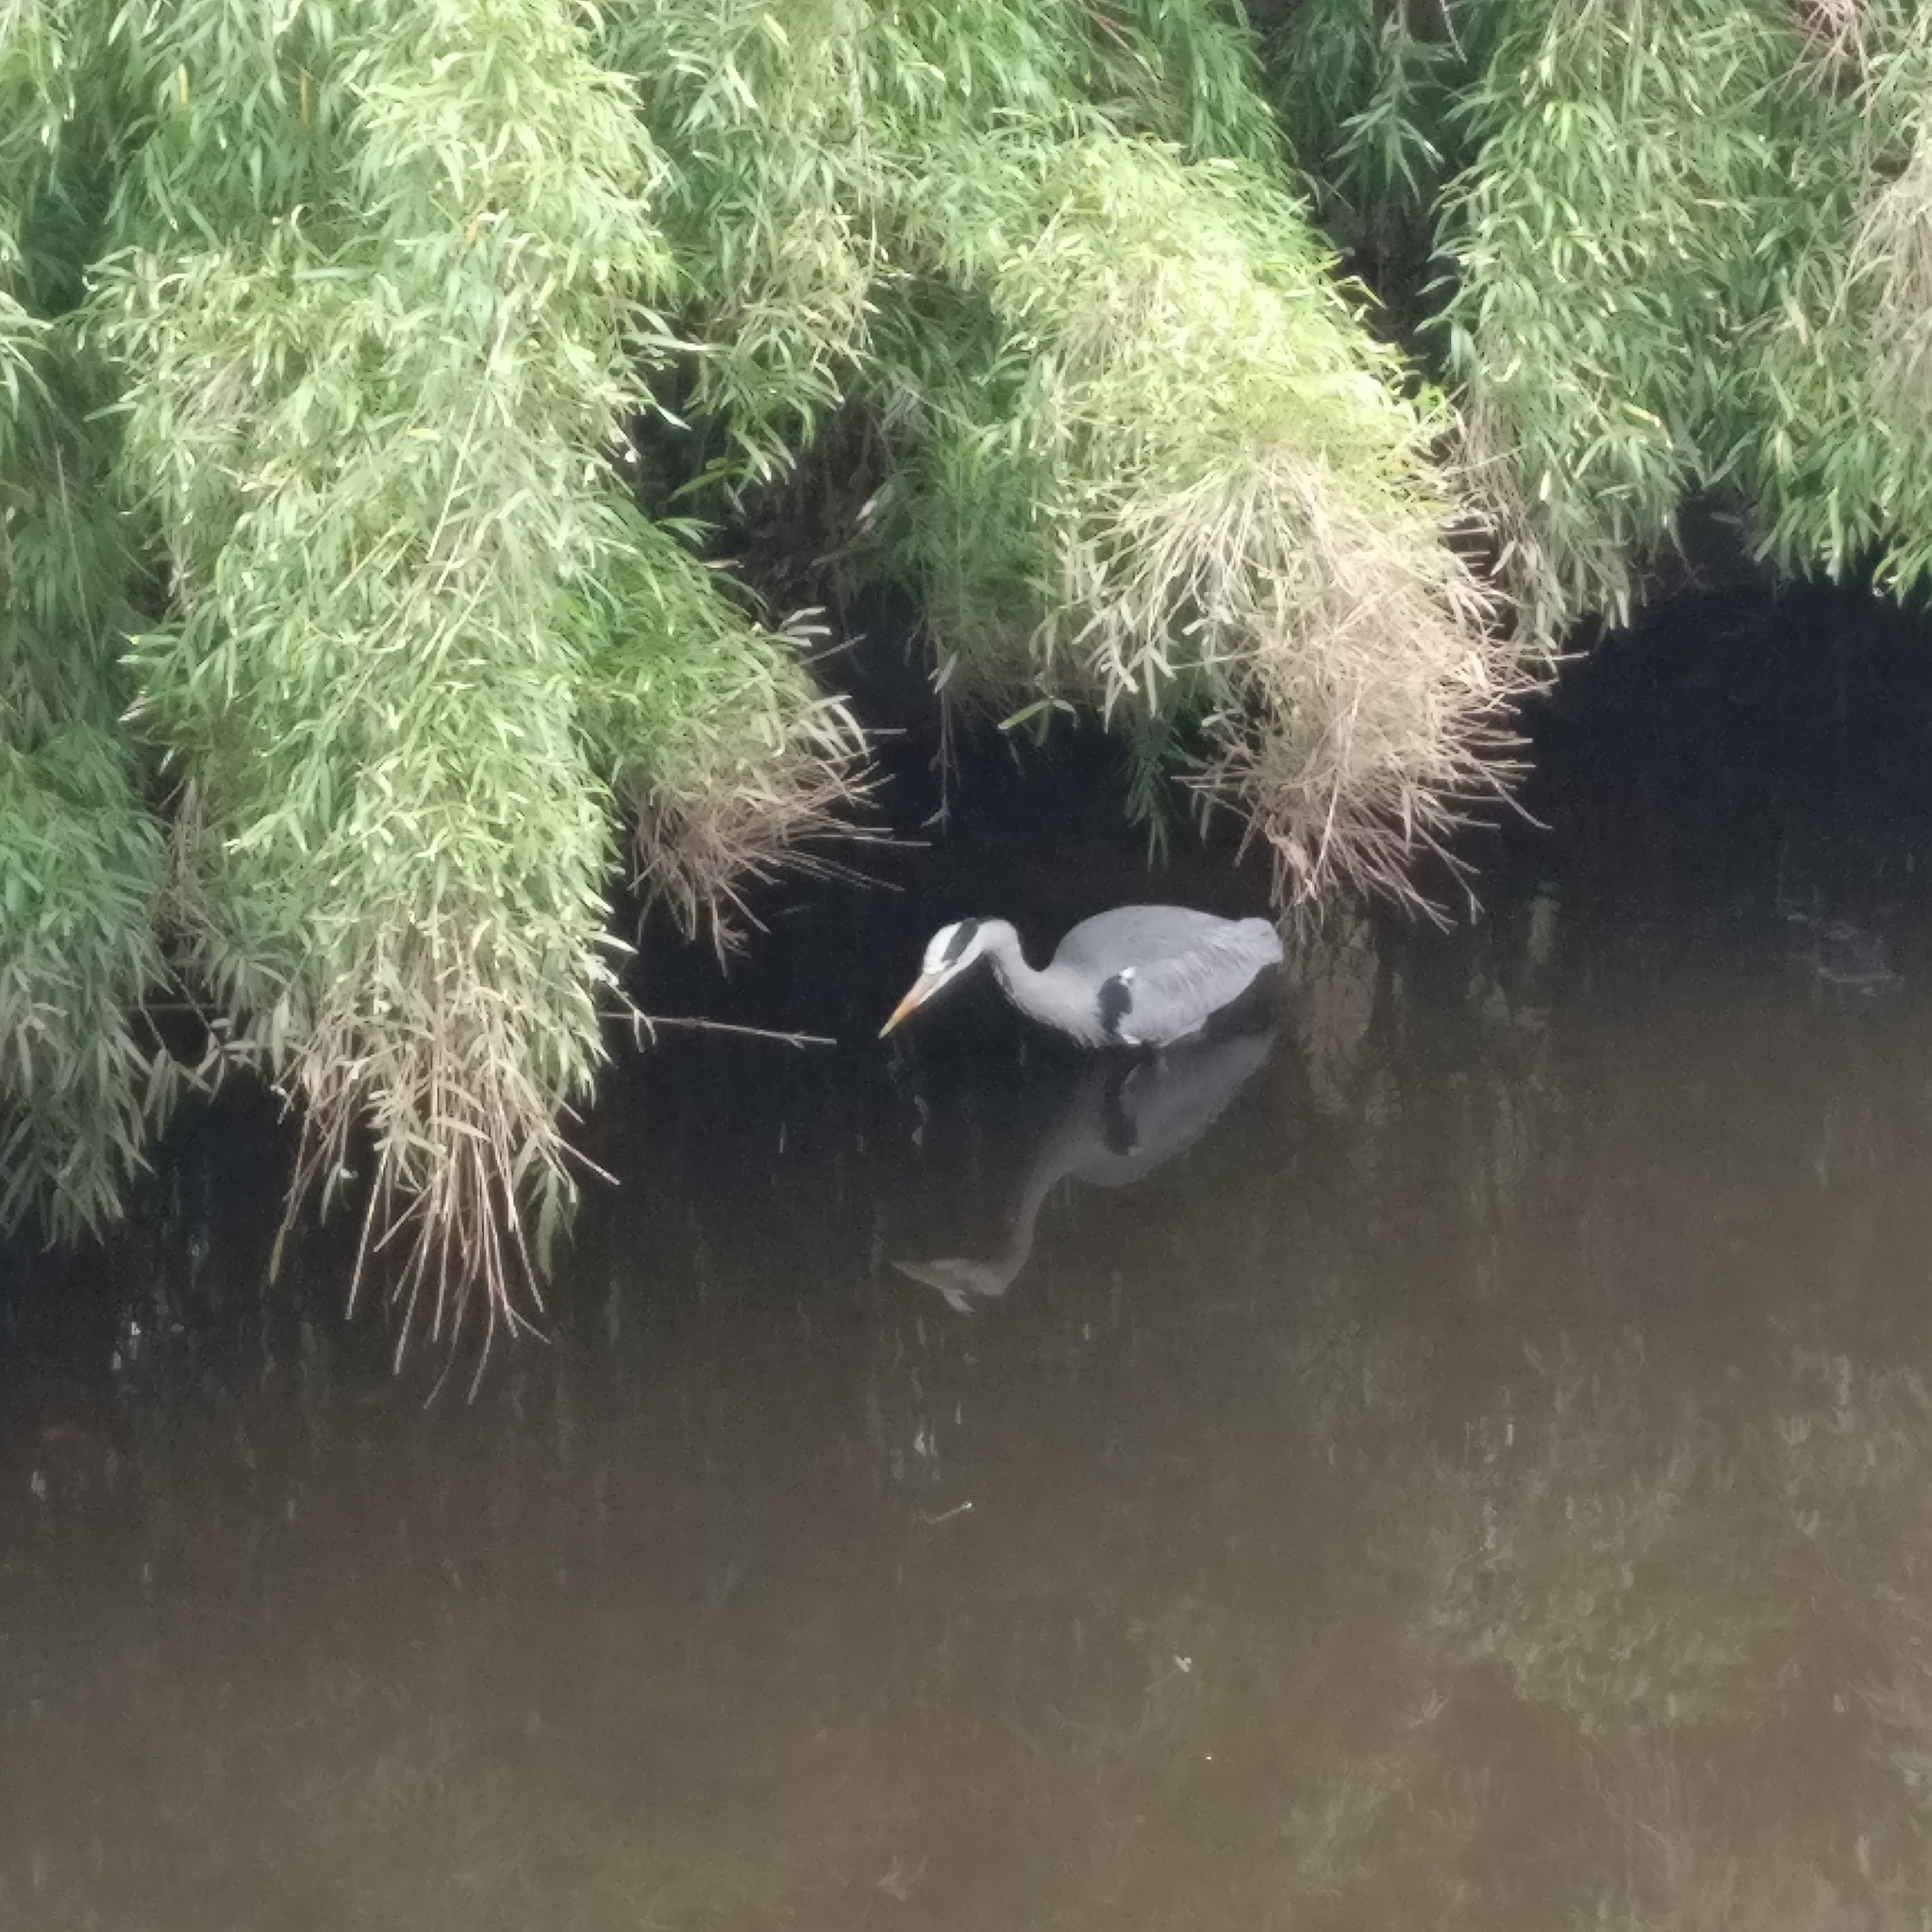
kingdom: Animalia
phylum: Chordata
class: Aves
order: Pelecaniformes
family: Ardeidae
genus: Ardea
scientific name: Ardea cinerea
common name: Grey heron
